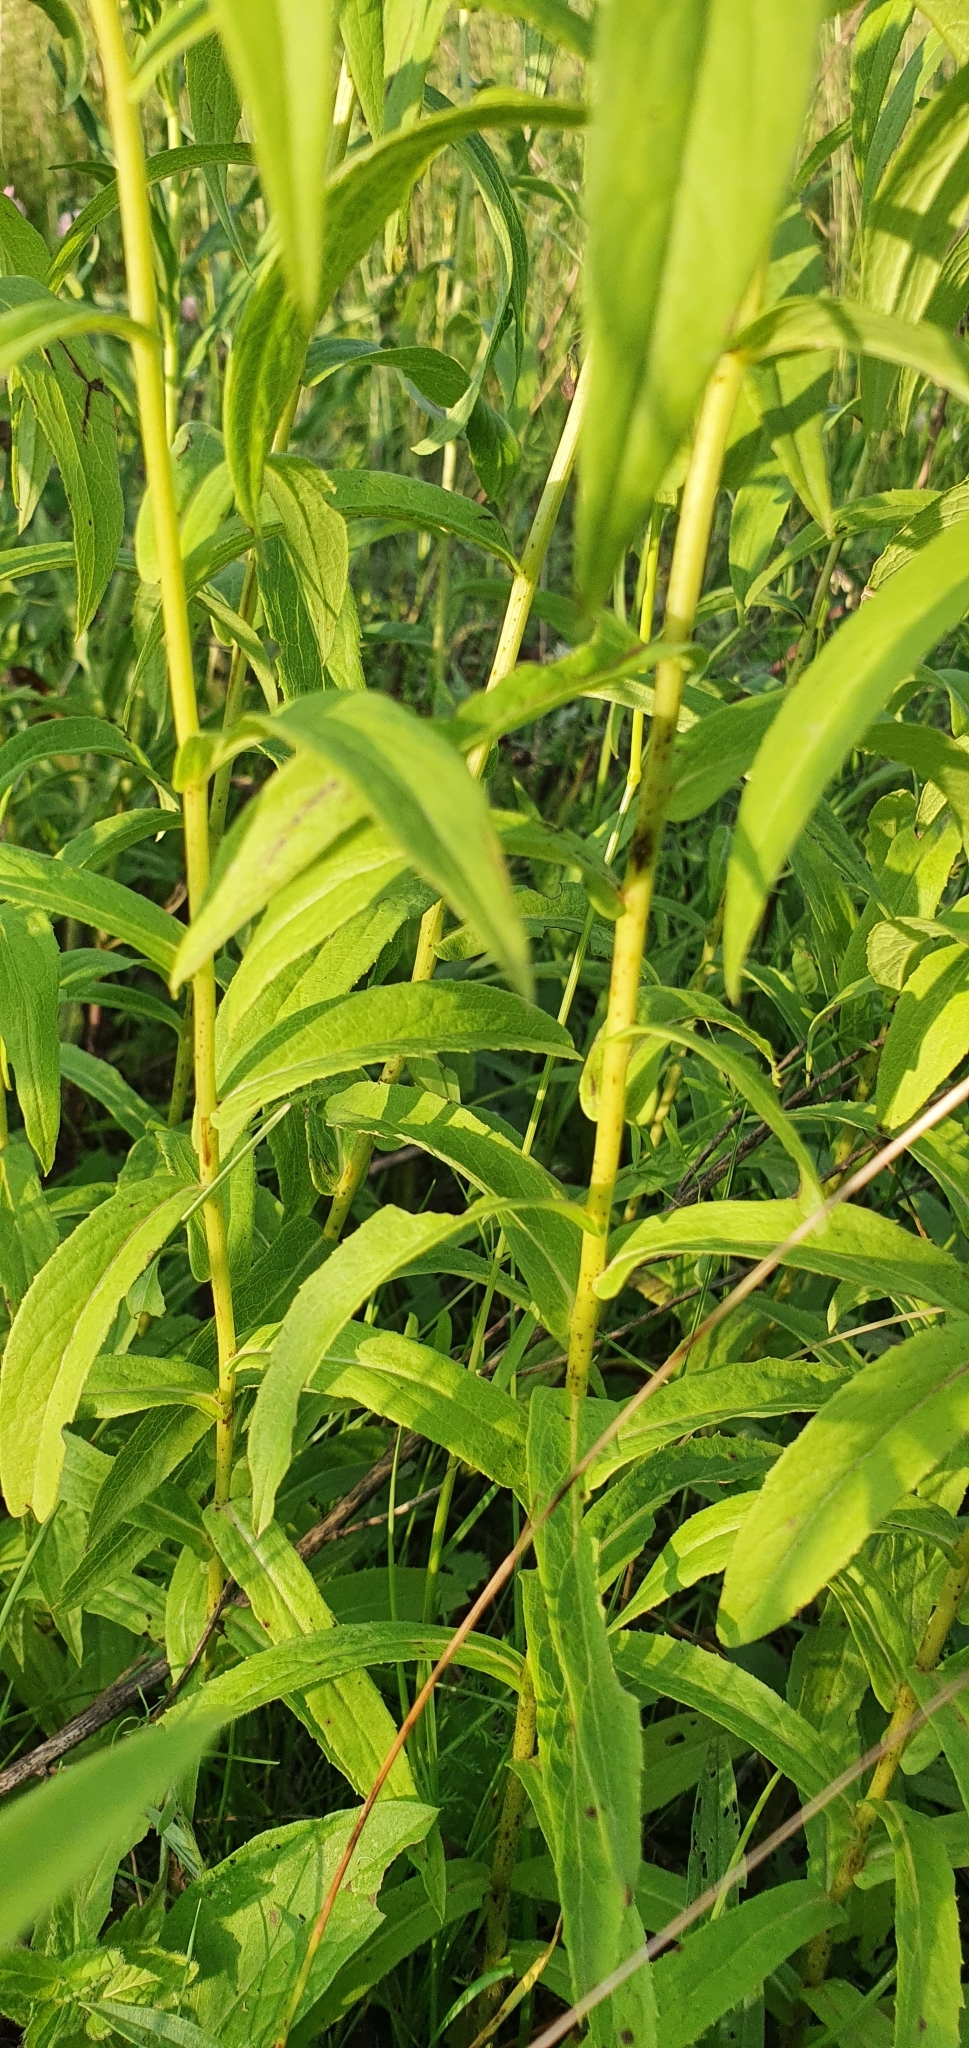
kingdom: Plantae
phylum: Tracheophyta
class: Magnoliopsida
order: Asterales
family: Asteraceae
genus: Pentanema
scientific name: Pentanema salicinum
